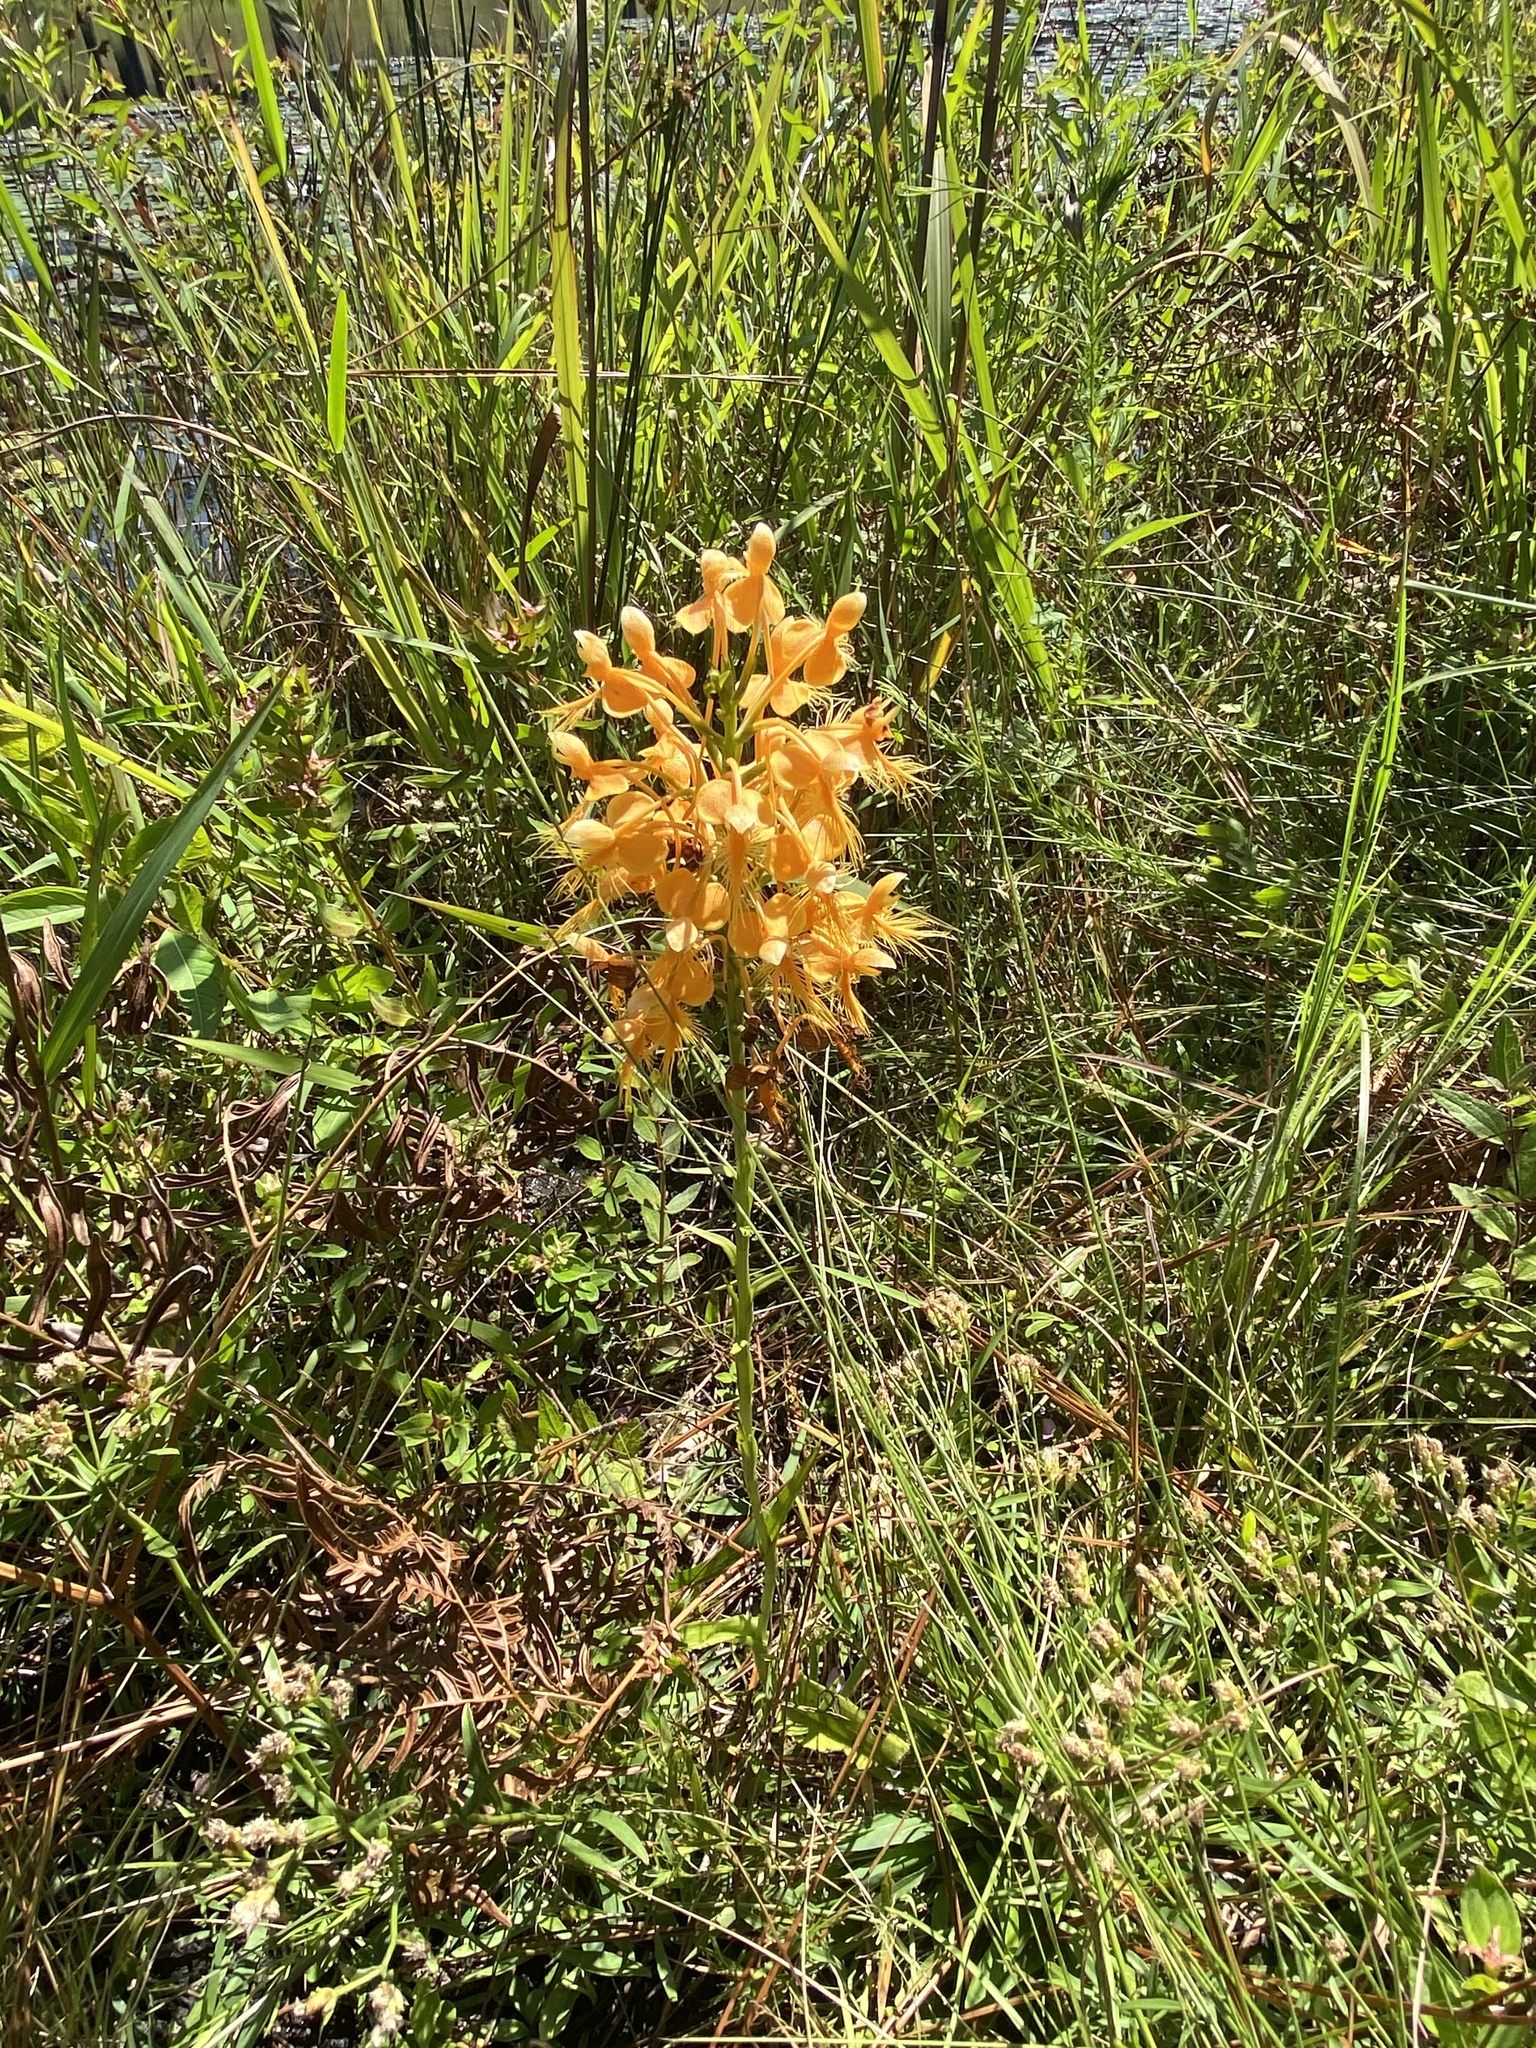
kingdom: Plantae
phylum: Tracheophyta
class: Liliopsida
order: Asparagales
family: Orchidaceae
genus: Platanthera
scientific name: Platanthera ciliaris
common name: Yellow fringed orchid
